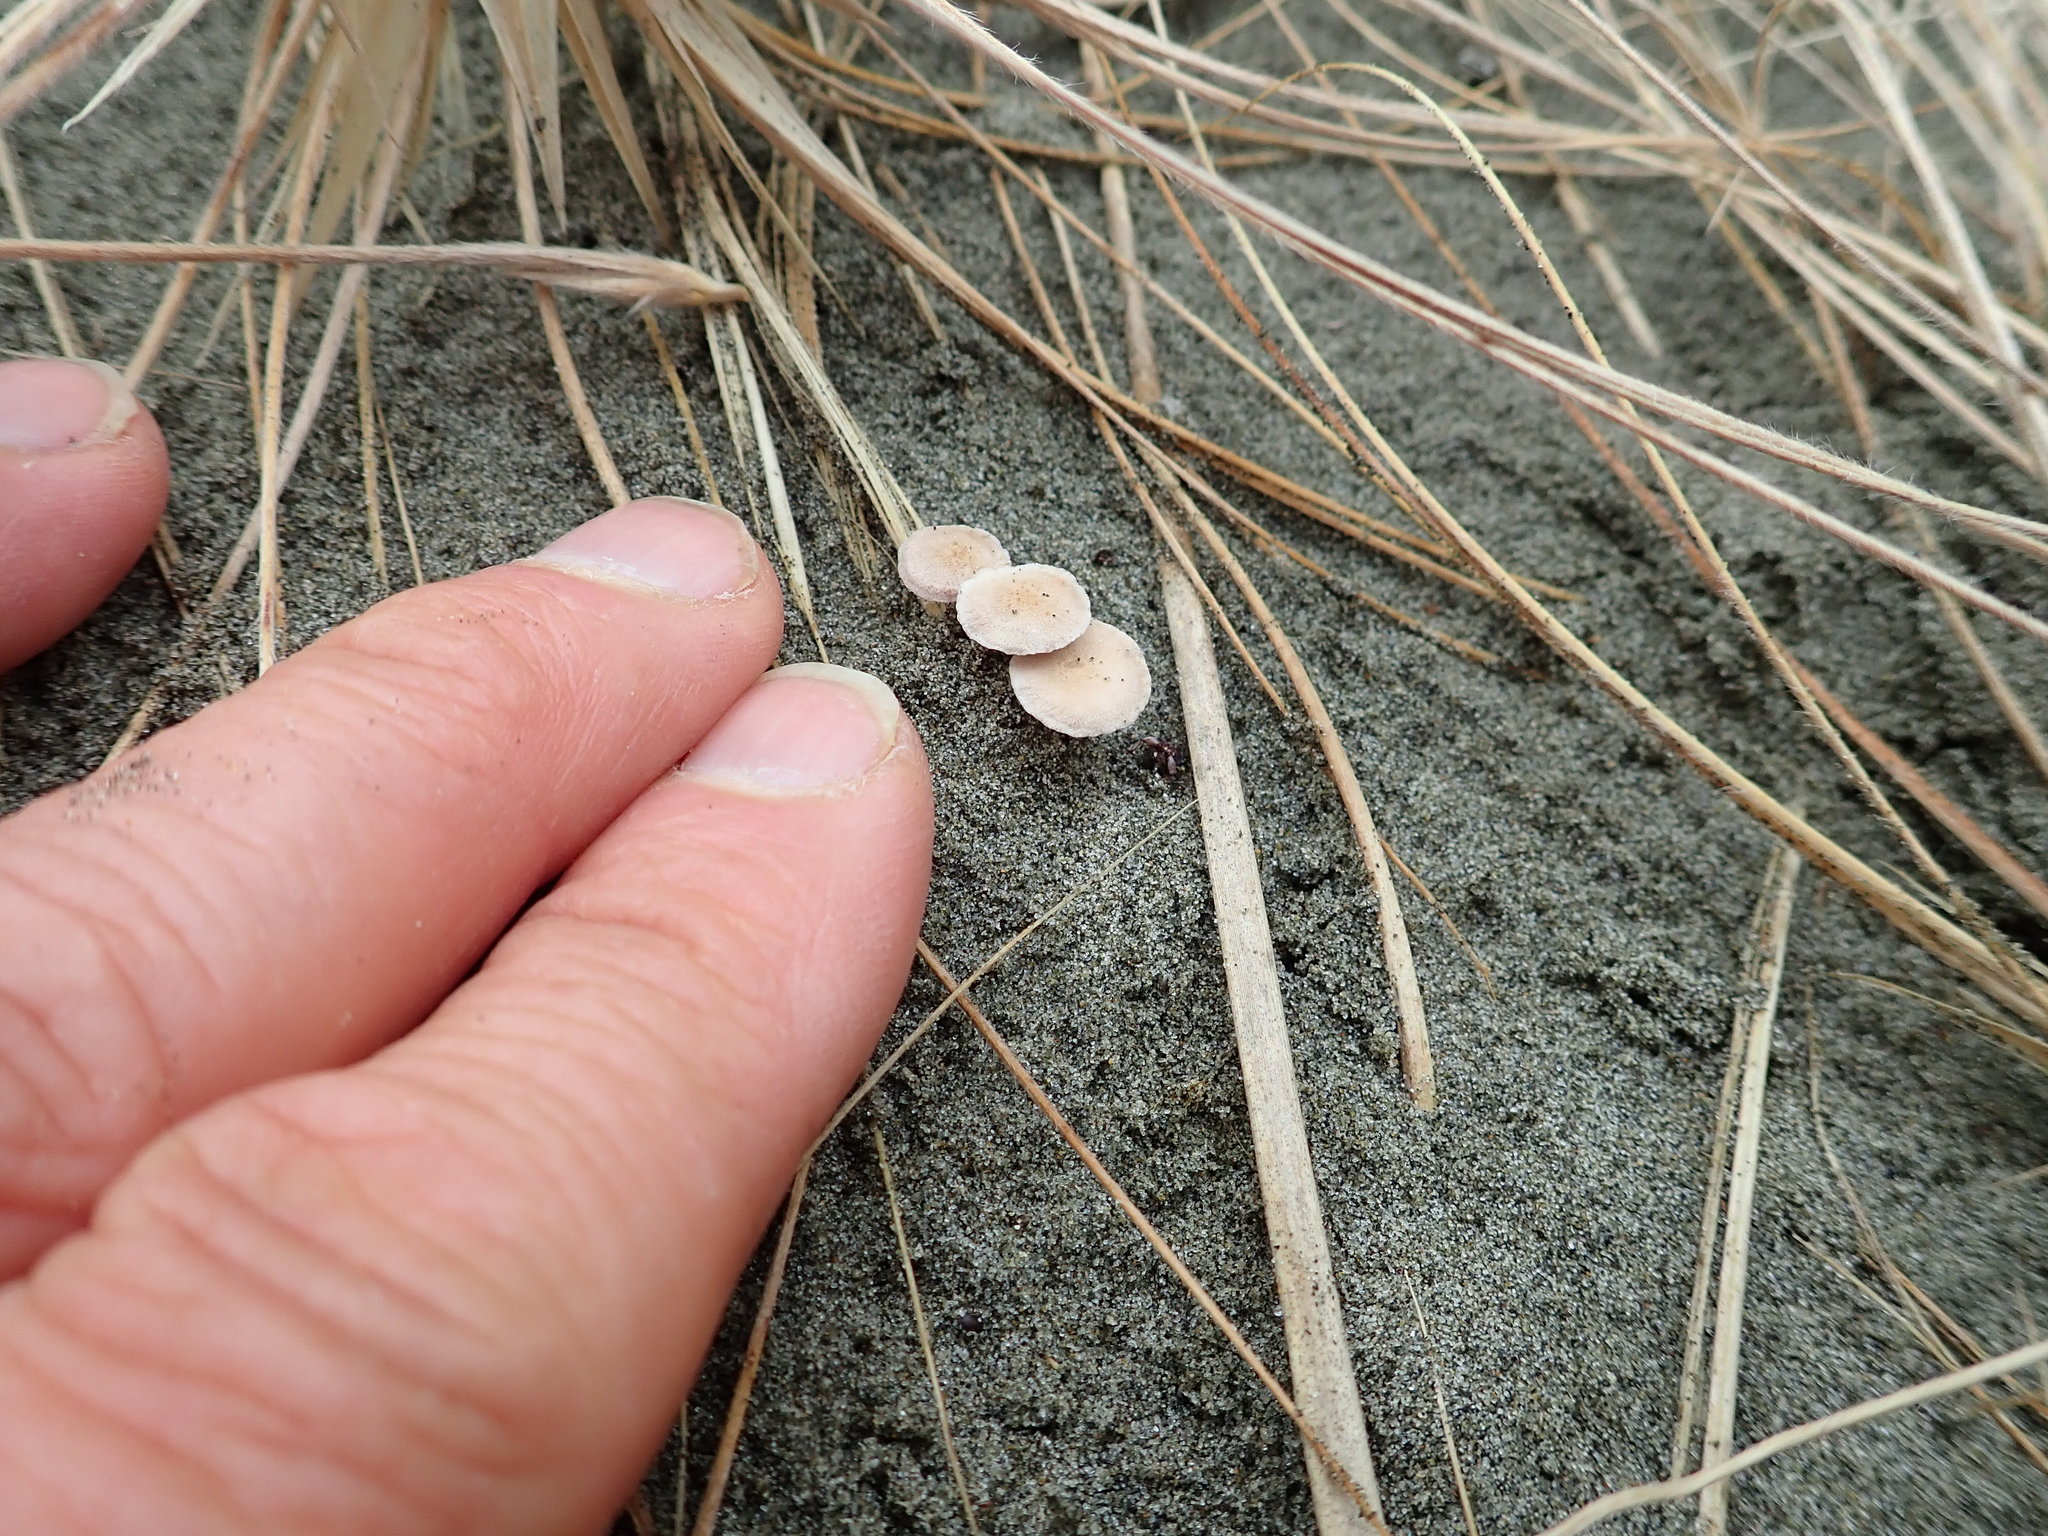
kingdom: Fungi
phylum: Basidiomycota
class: Agaricomycetes
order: Agaricales
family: Marasmiaceae
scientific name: Marasmiaceae
